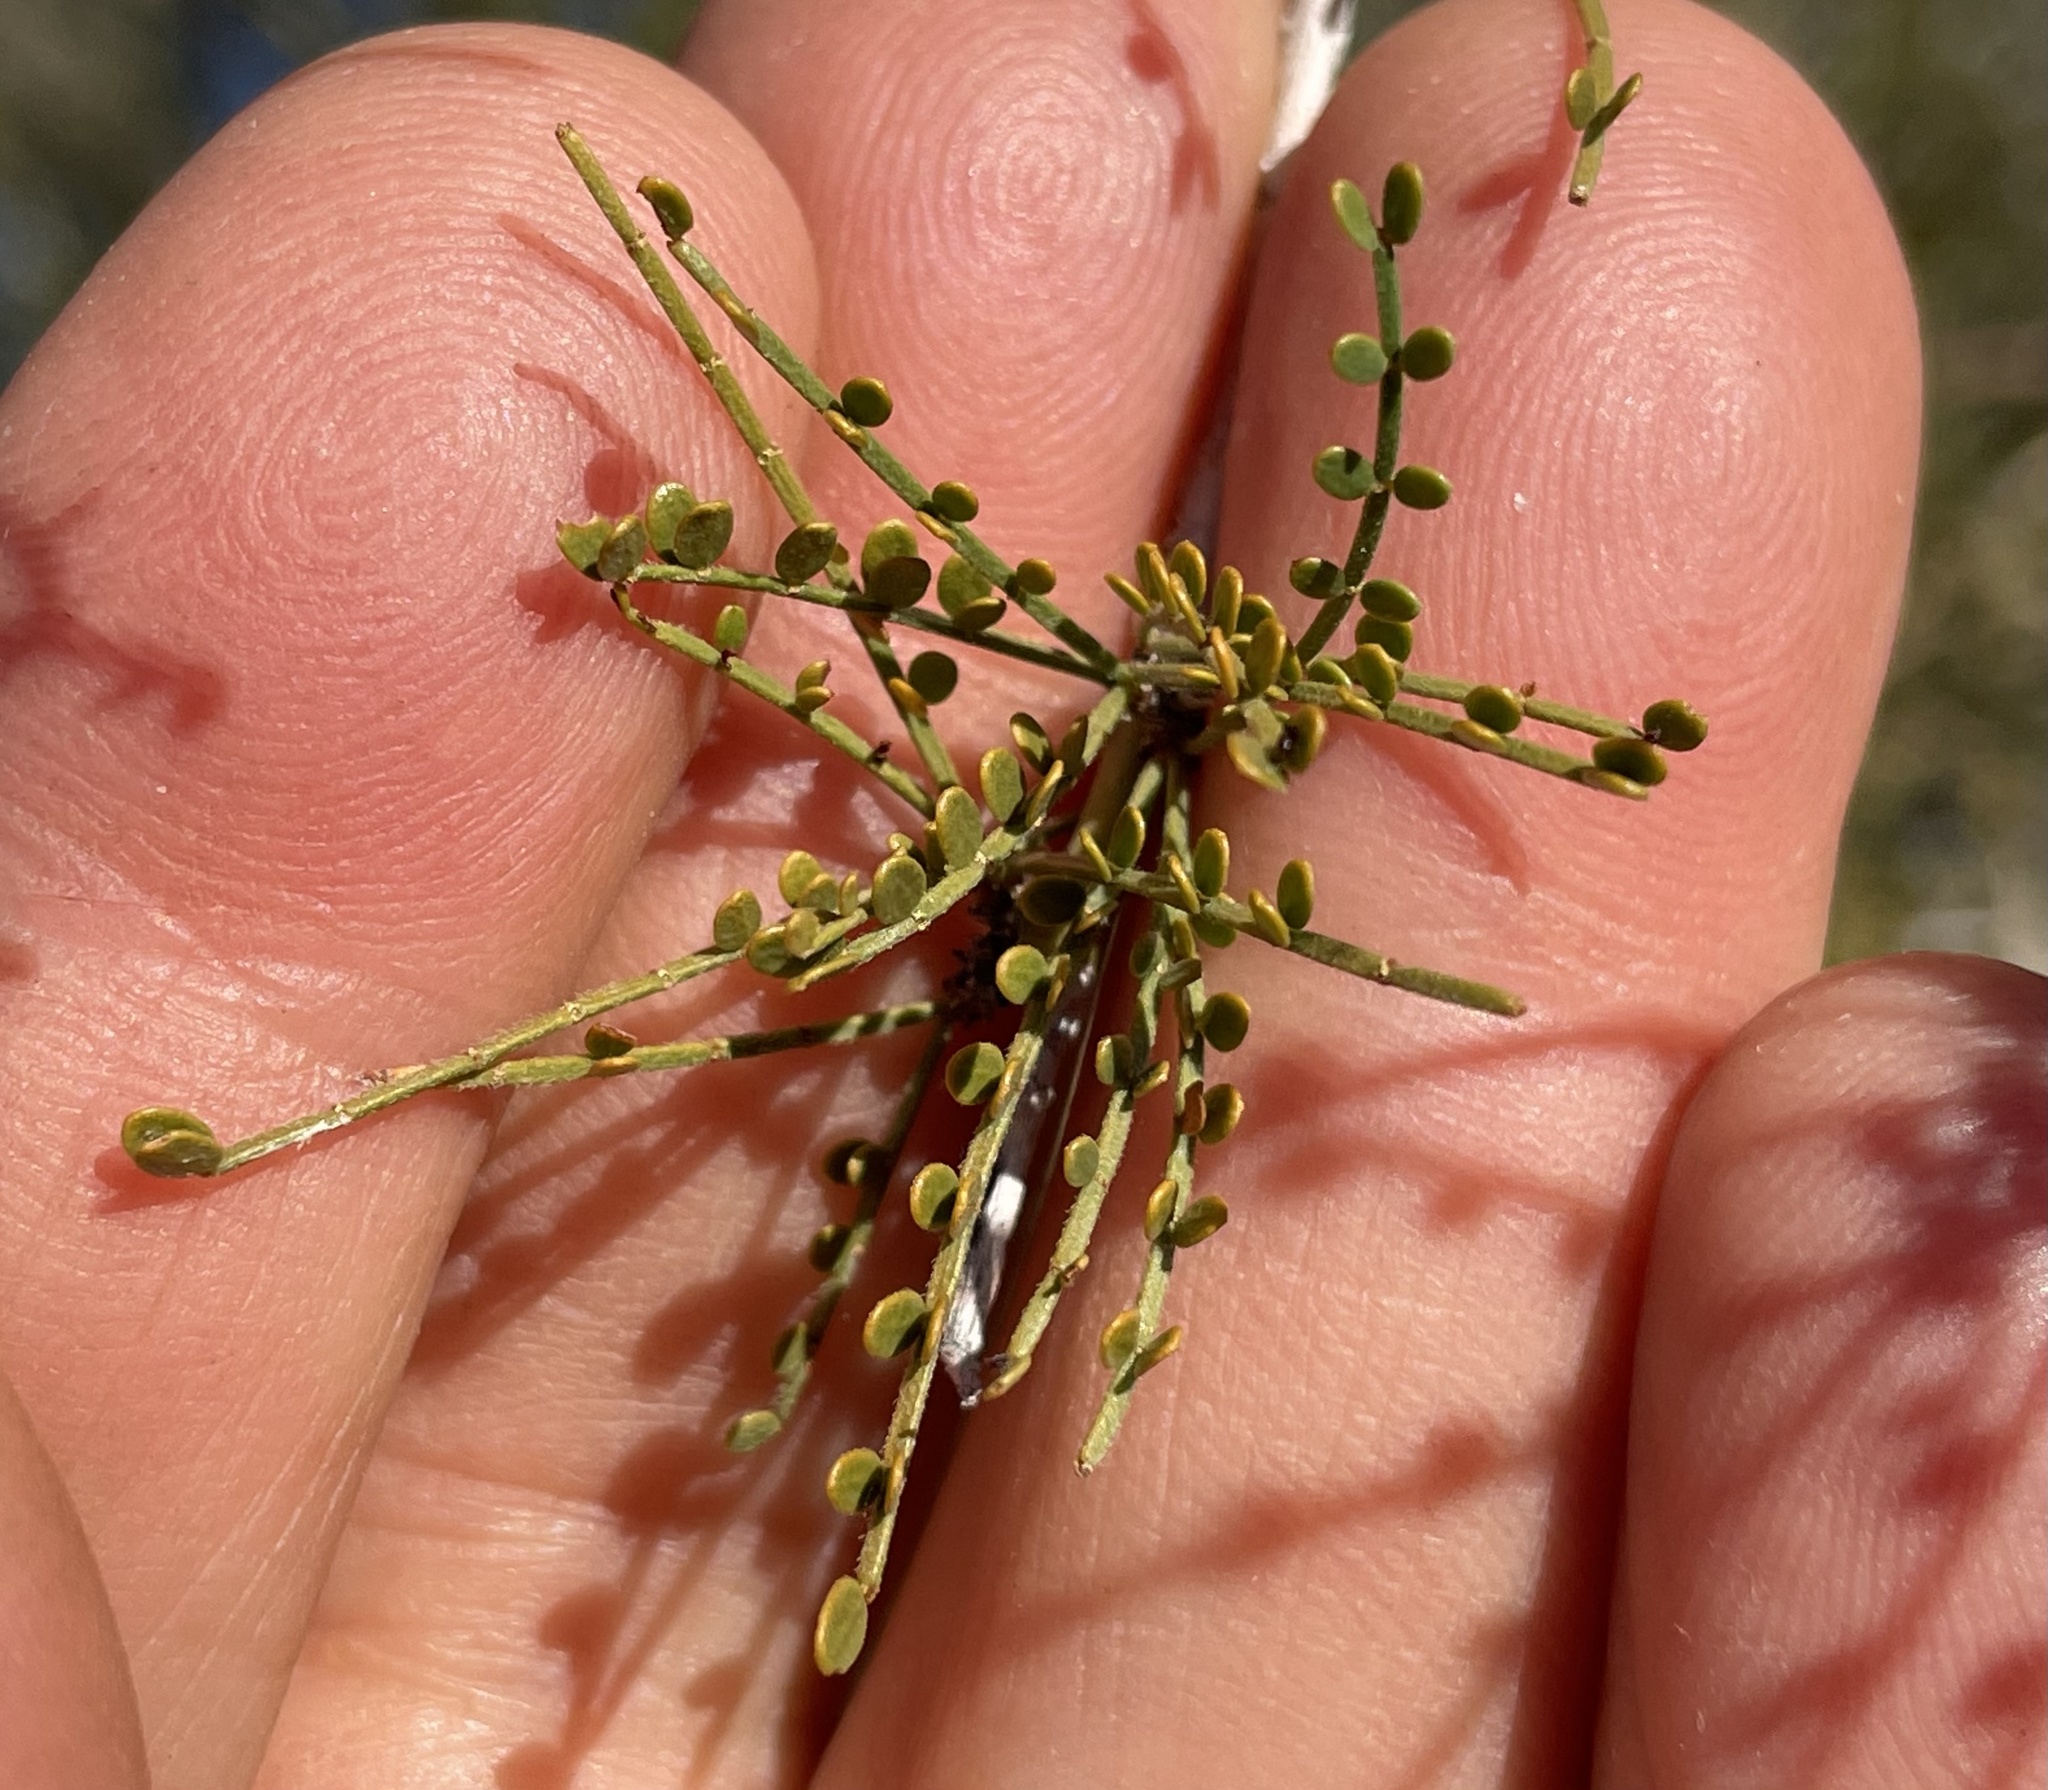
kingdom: Plantae
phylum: Tracheophyta
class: Magnoliopsida
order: Fabales
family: Fabaceae
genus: Parkinsonia
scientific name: Parkinsonia microphylla
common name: Yellow paloverde
